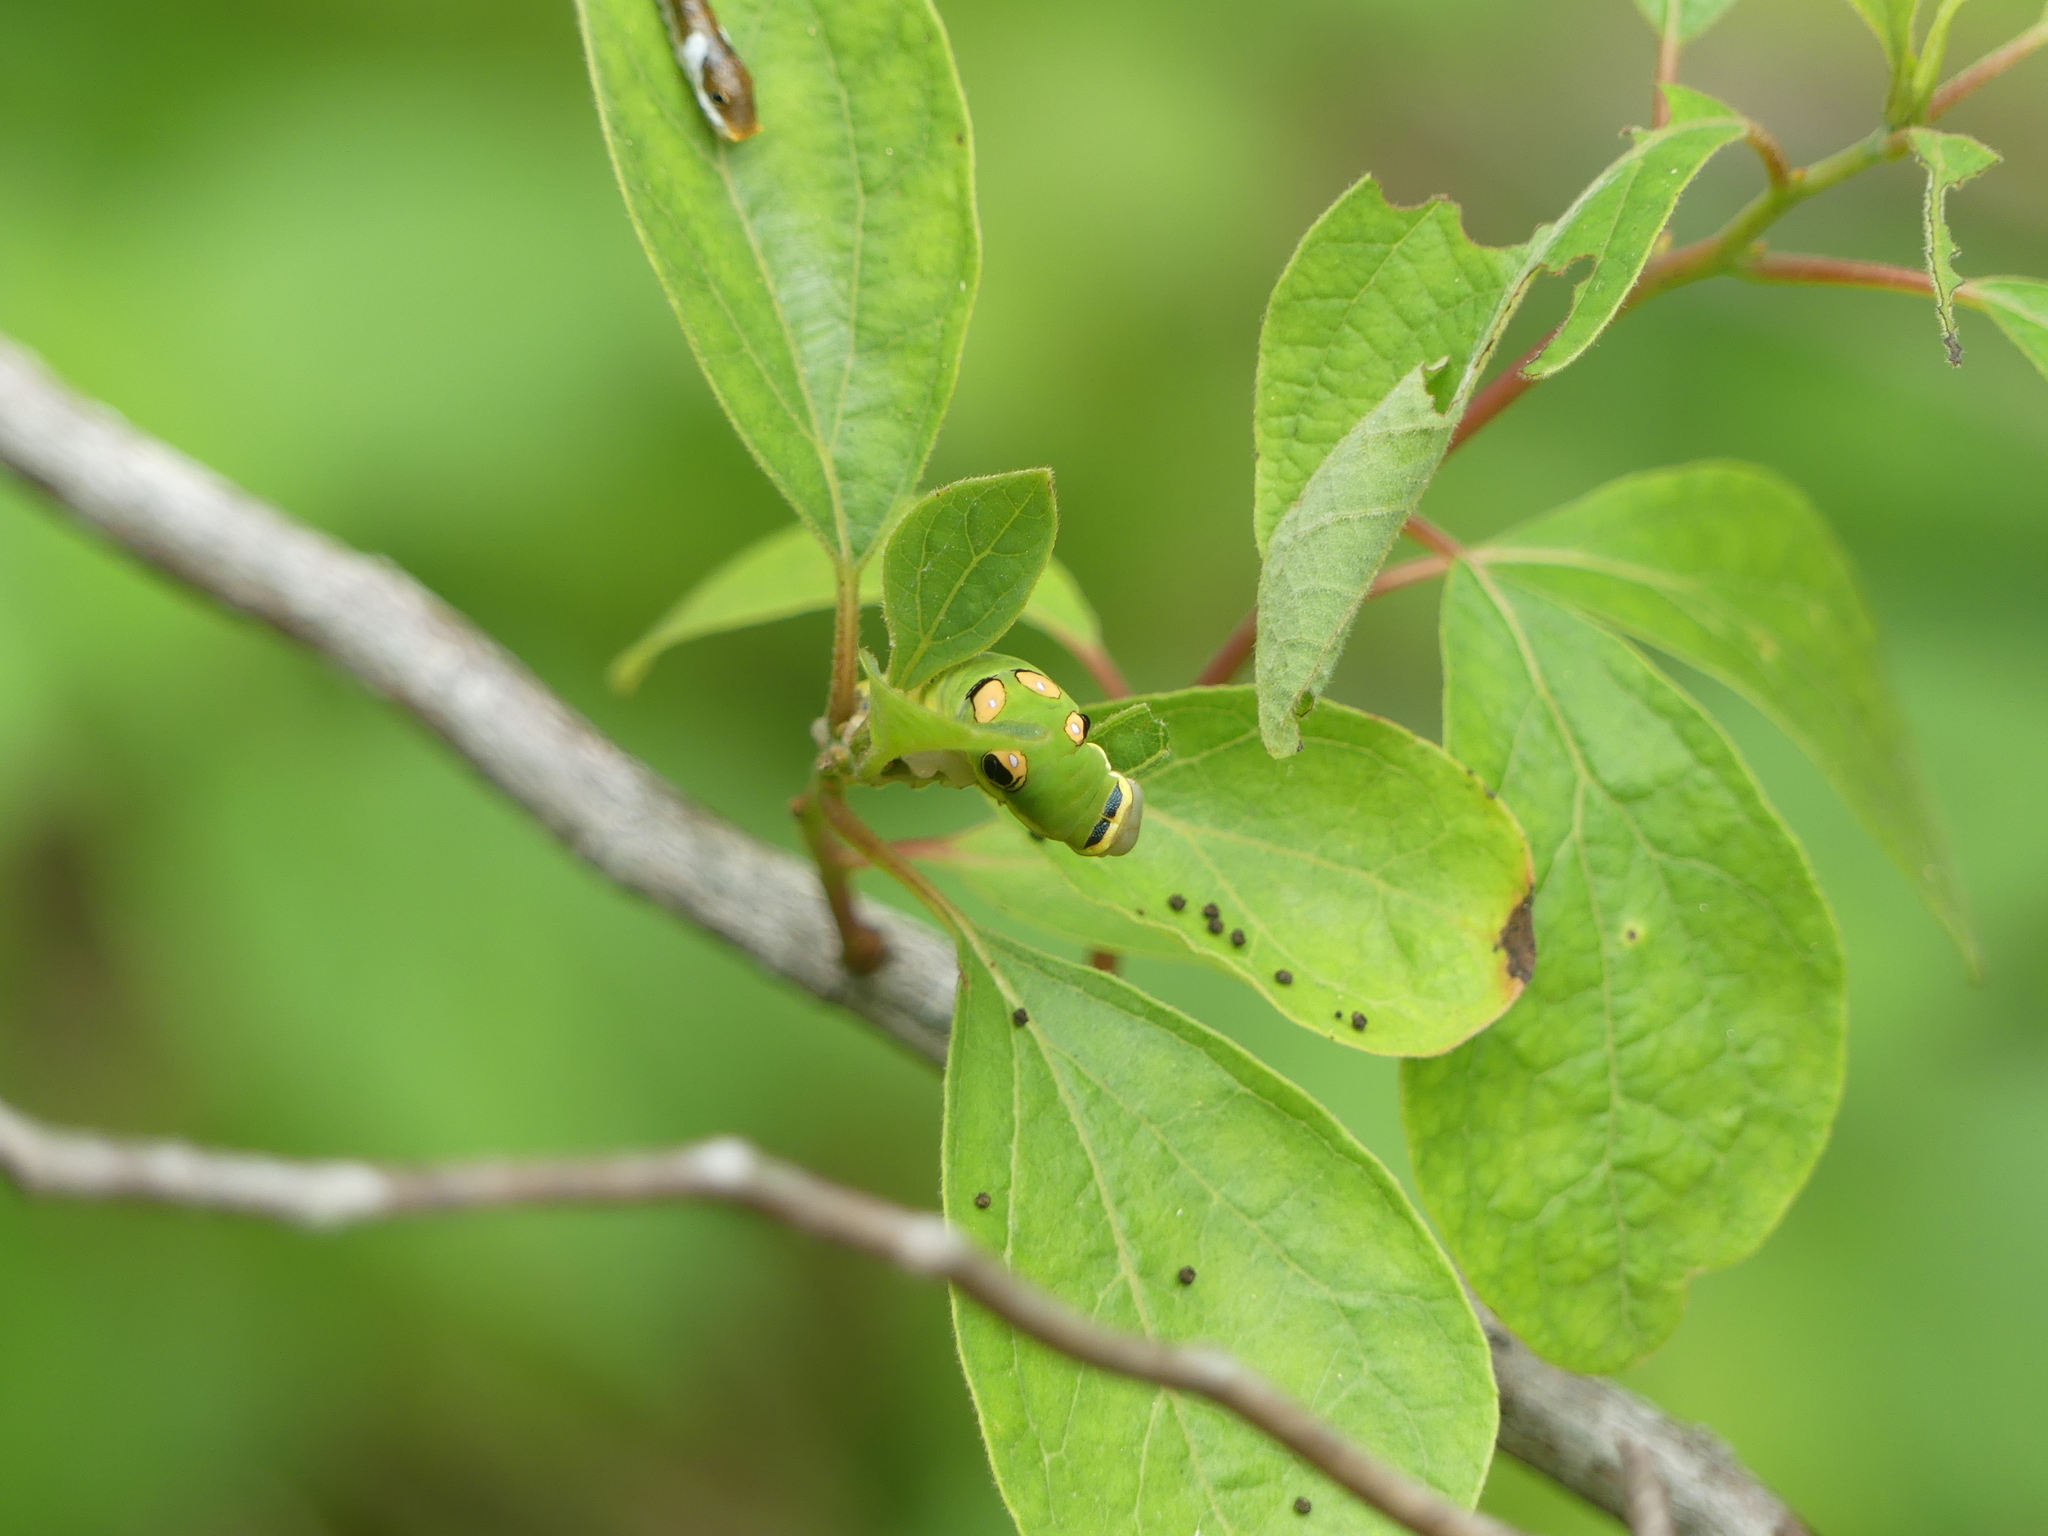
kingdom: Animalia
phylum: Arthropoda
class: Insecta
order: Lepidoptera
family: Papilionidae
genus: Papilio
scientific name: Papilio troilus
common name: Spicebush swallowtail
